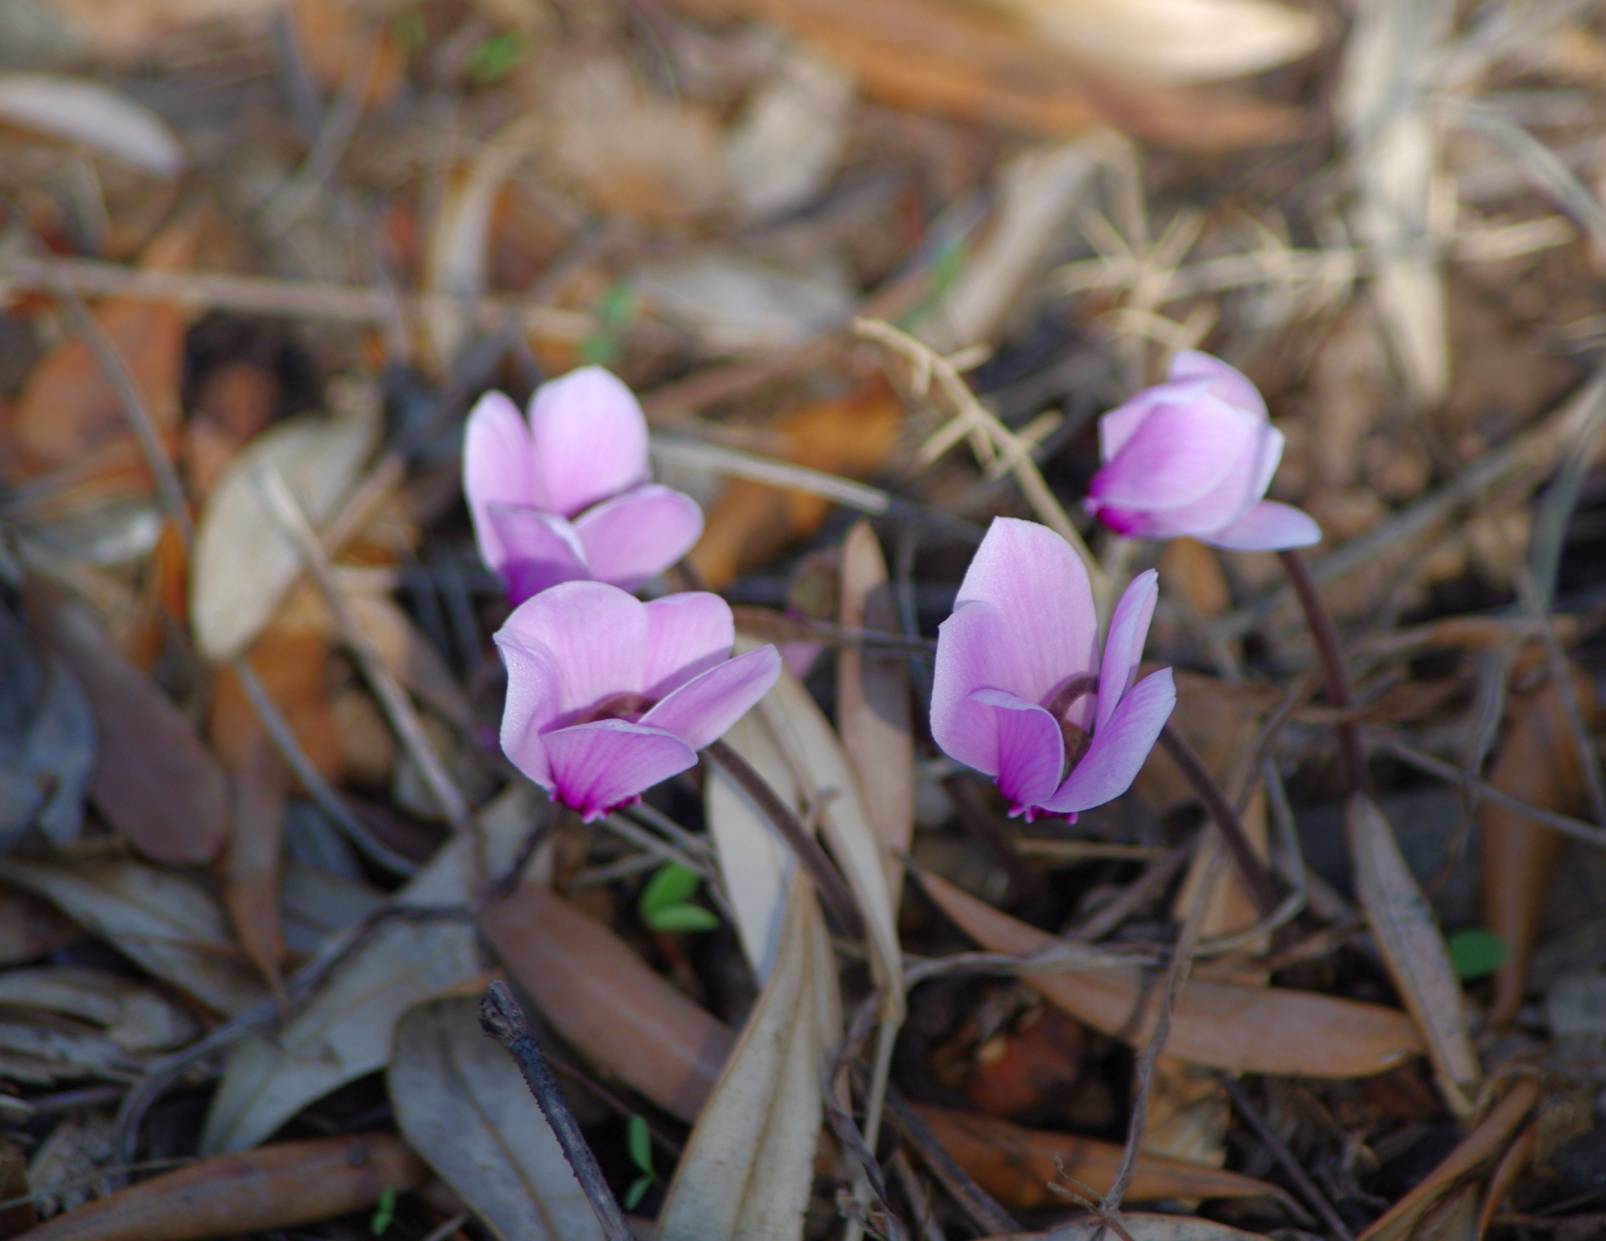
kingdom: Plantae
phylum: Tracheophyta
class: Magnoliopsida
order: Ericales
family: Primulaceae
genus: Cyclamen
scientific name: Cyclamen graecum
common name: Greek cyclamen
